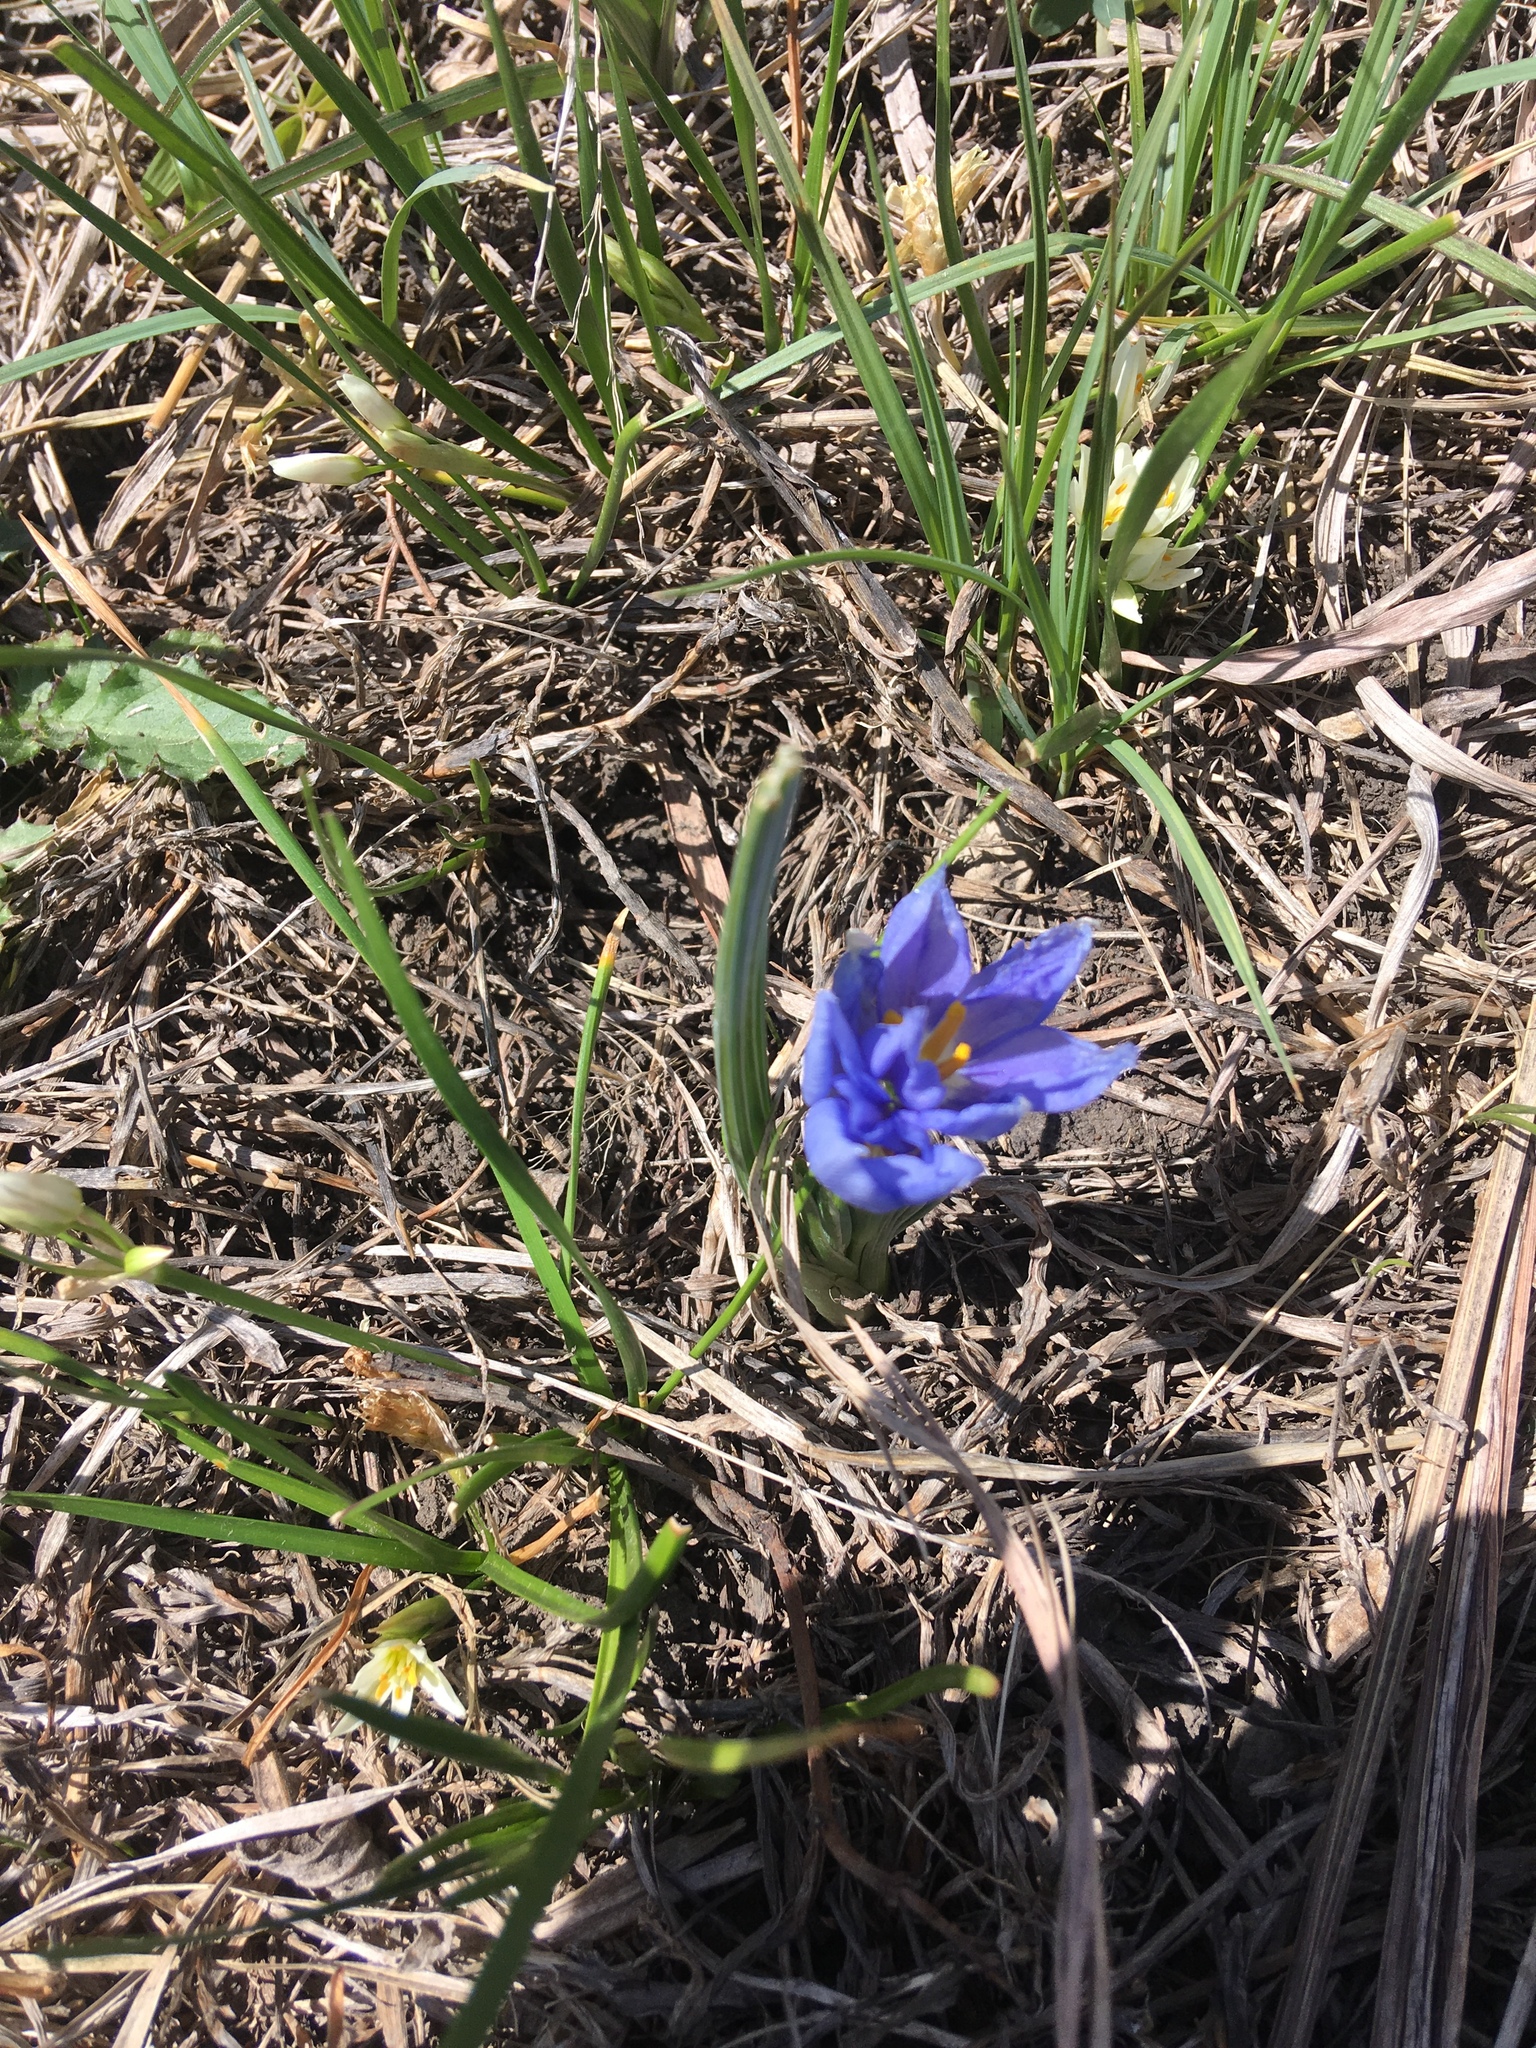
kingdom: Plantae
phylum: Tracheophyta
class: Liliopsida
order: Asparagales
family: Iridaceae
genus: Nemastylis
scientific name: Nemastylis geminiflora
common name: Prairie celestial
